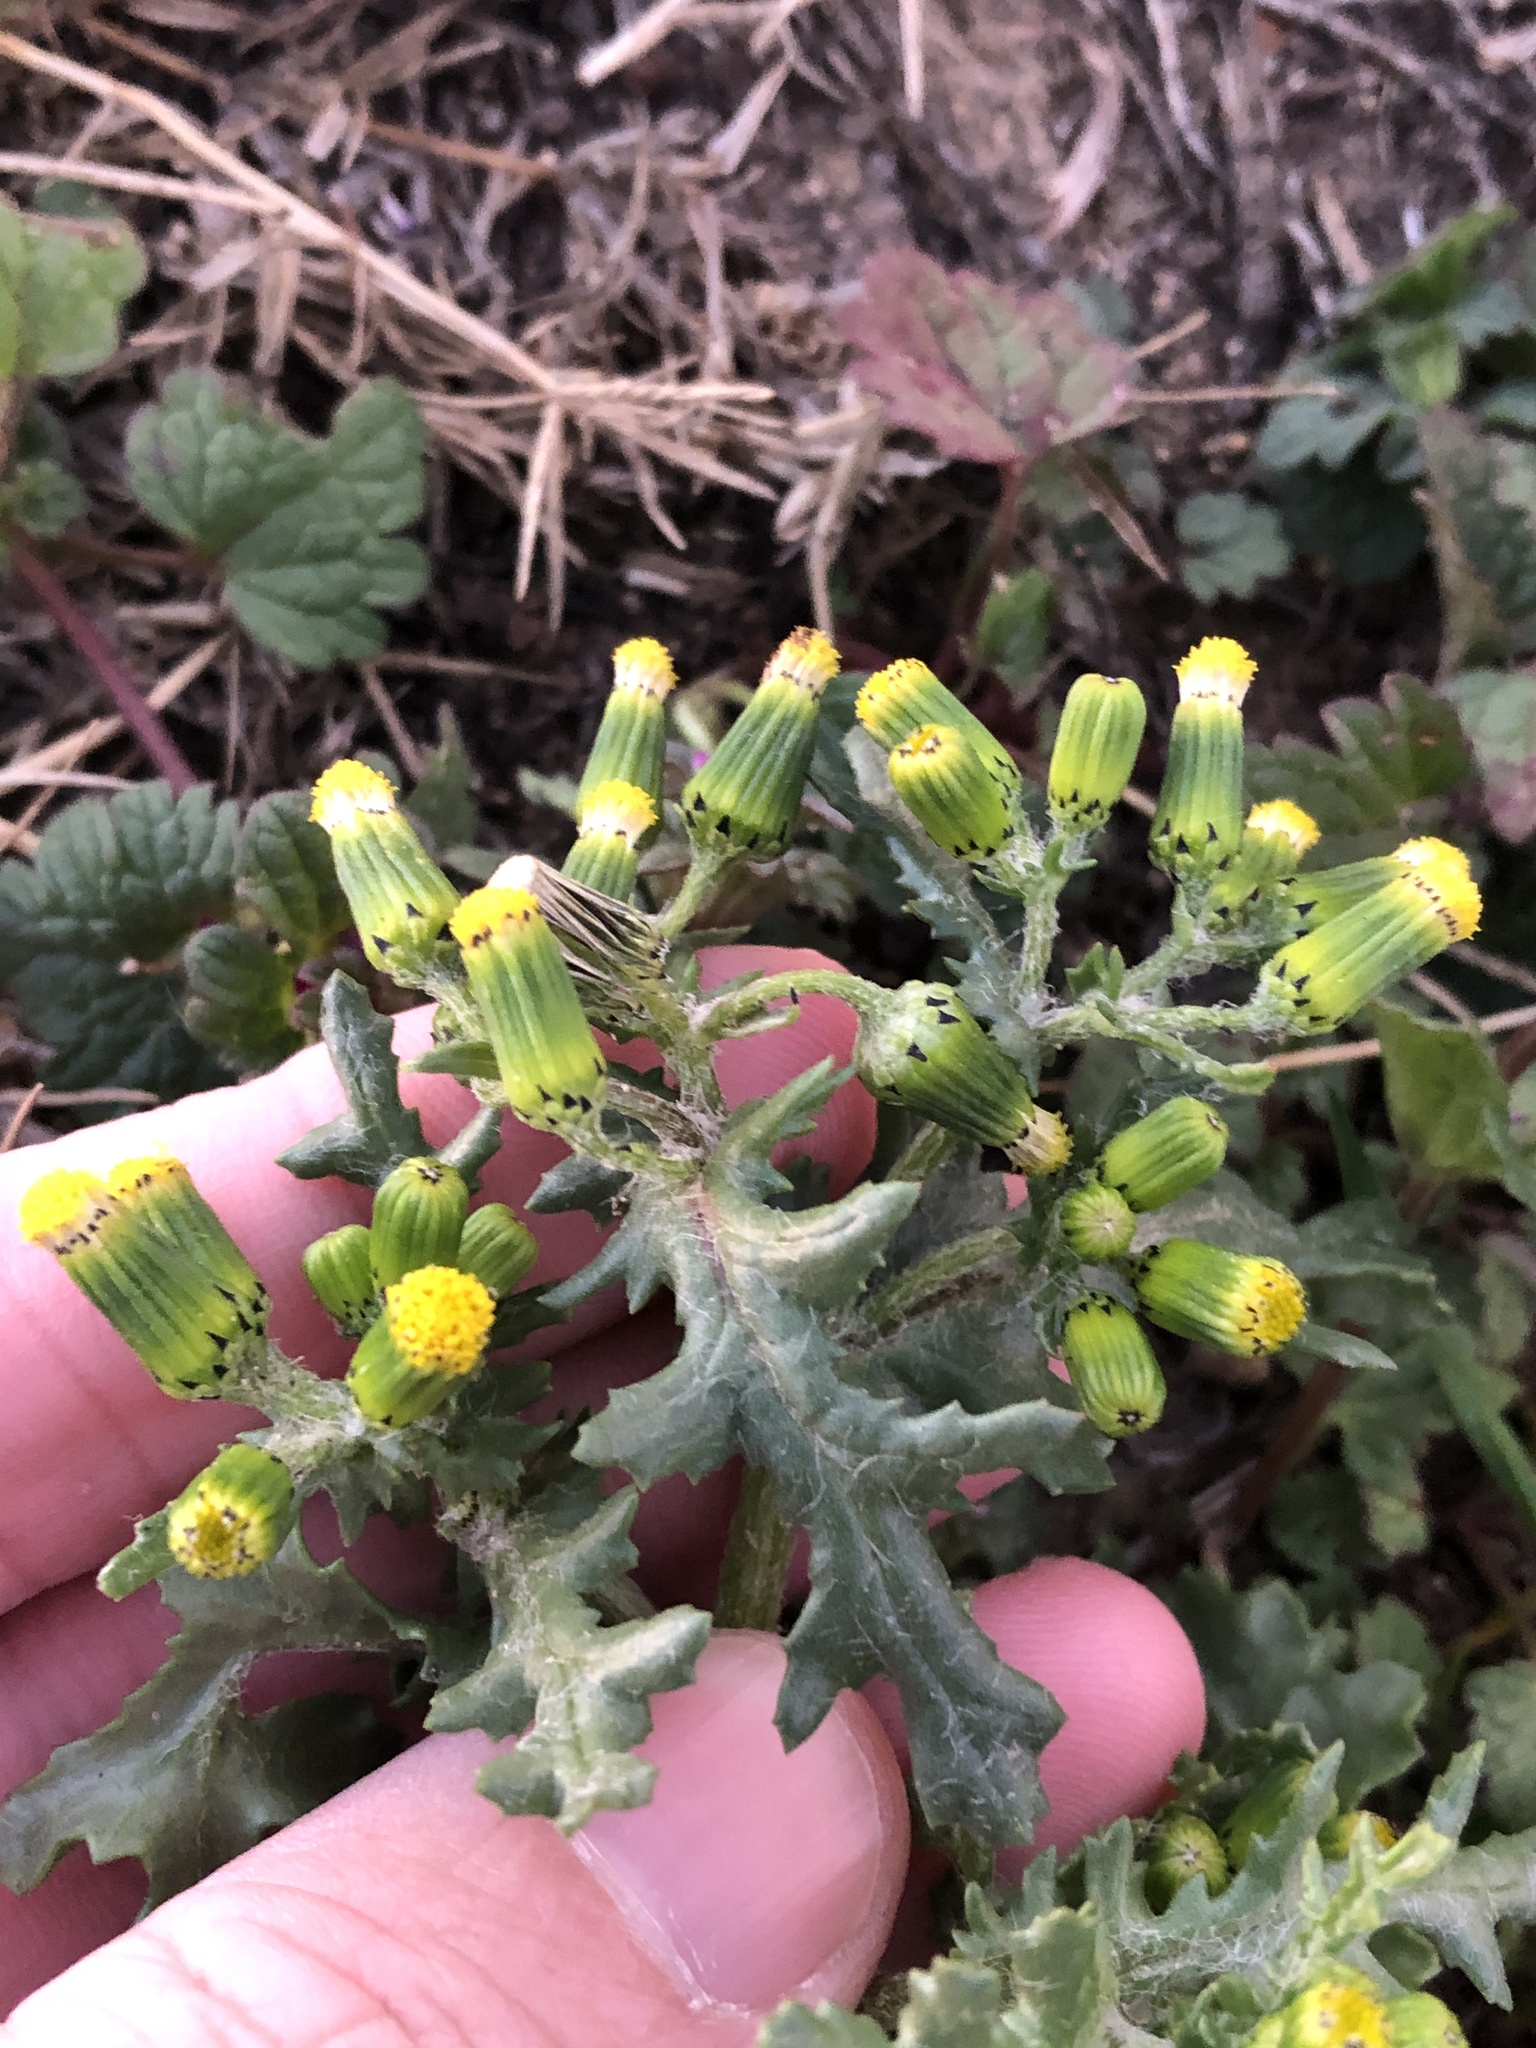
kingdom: Plantae
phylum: Tracheophyta
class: Magnoliopsida
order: Asterales
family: Asteraceae
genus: Senecio
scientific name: Senecio vulgaris
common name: Old-man-in-the-spring
